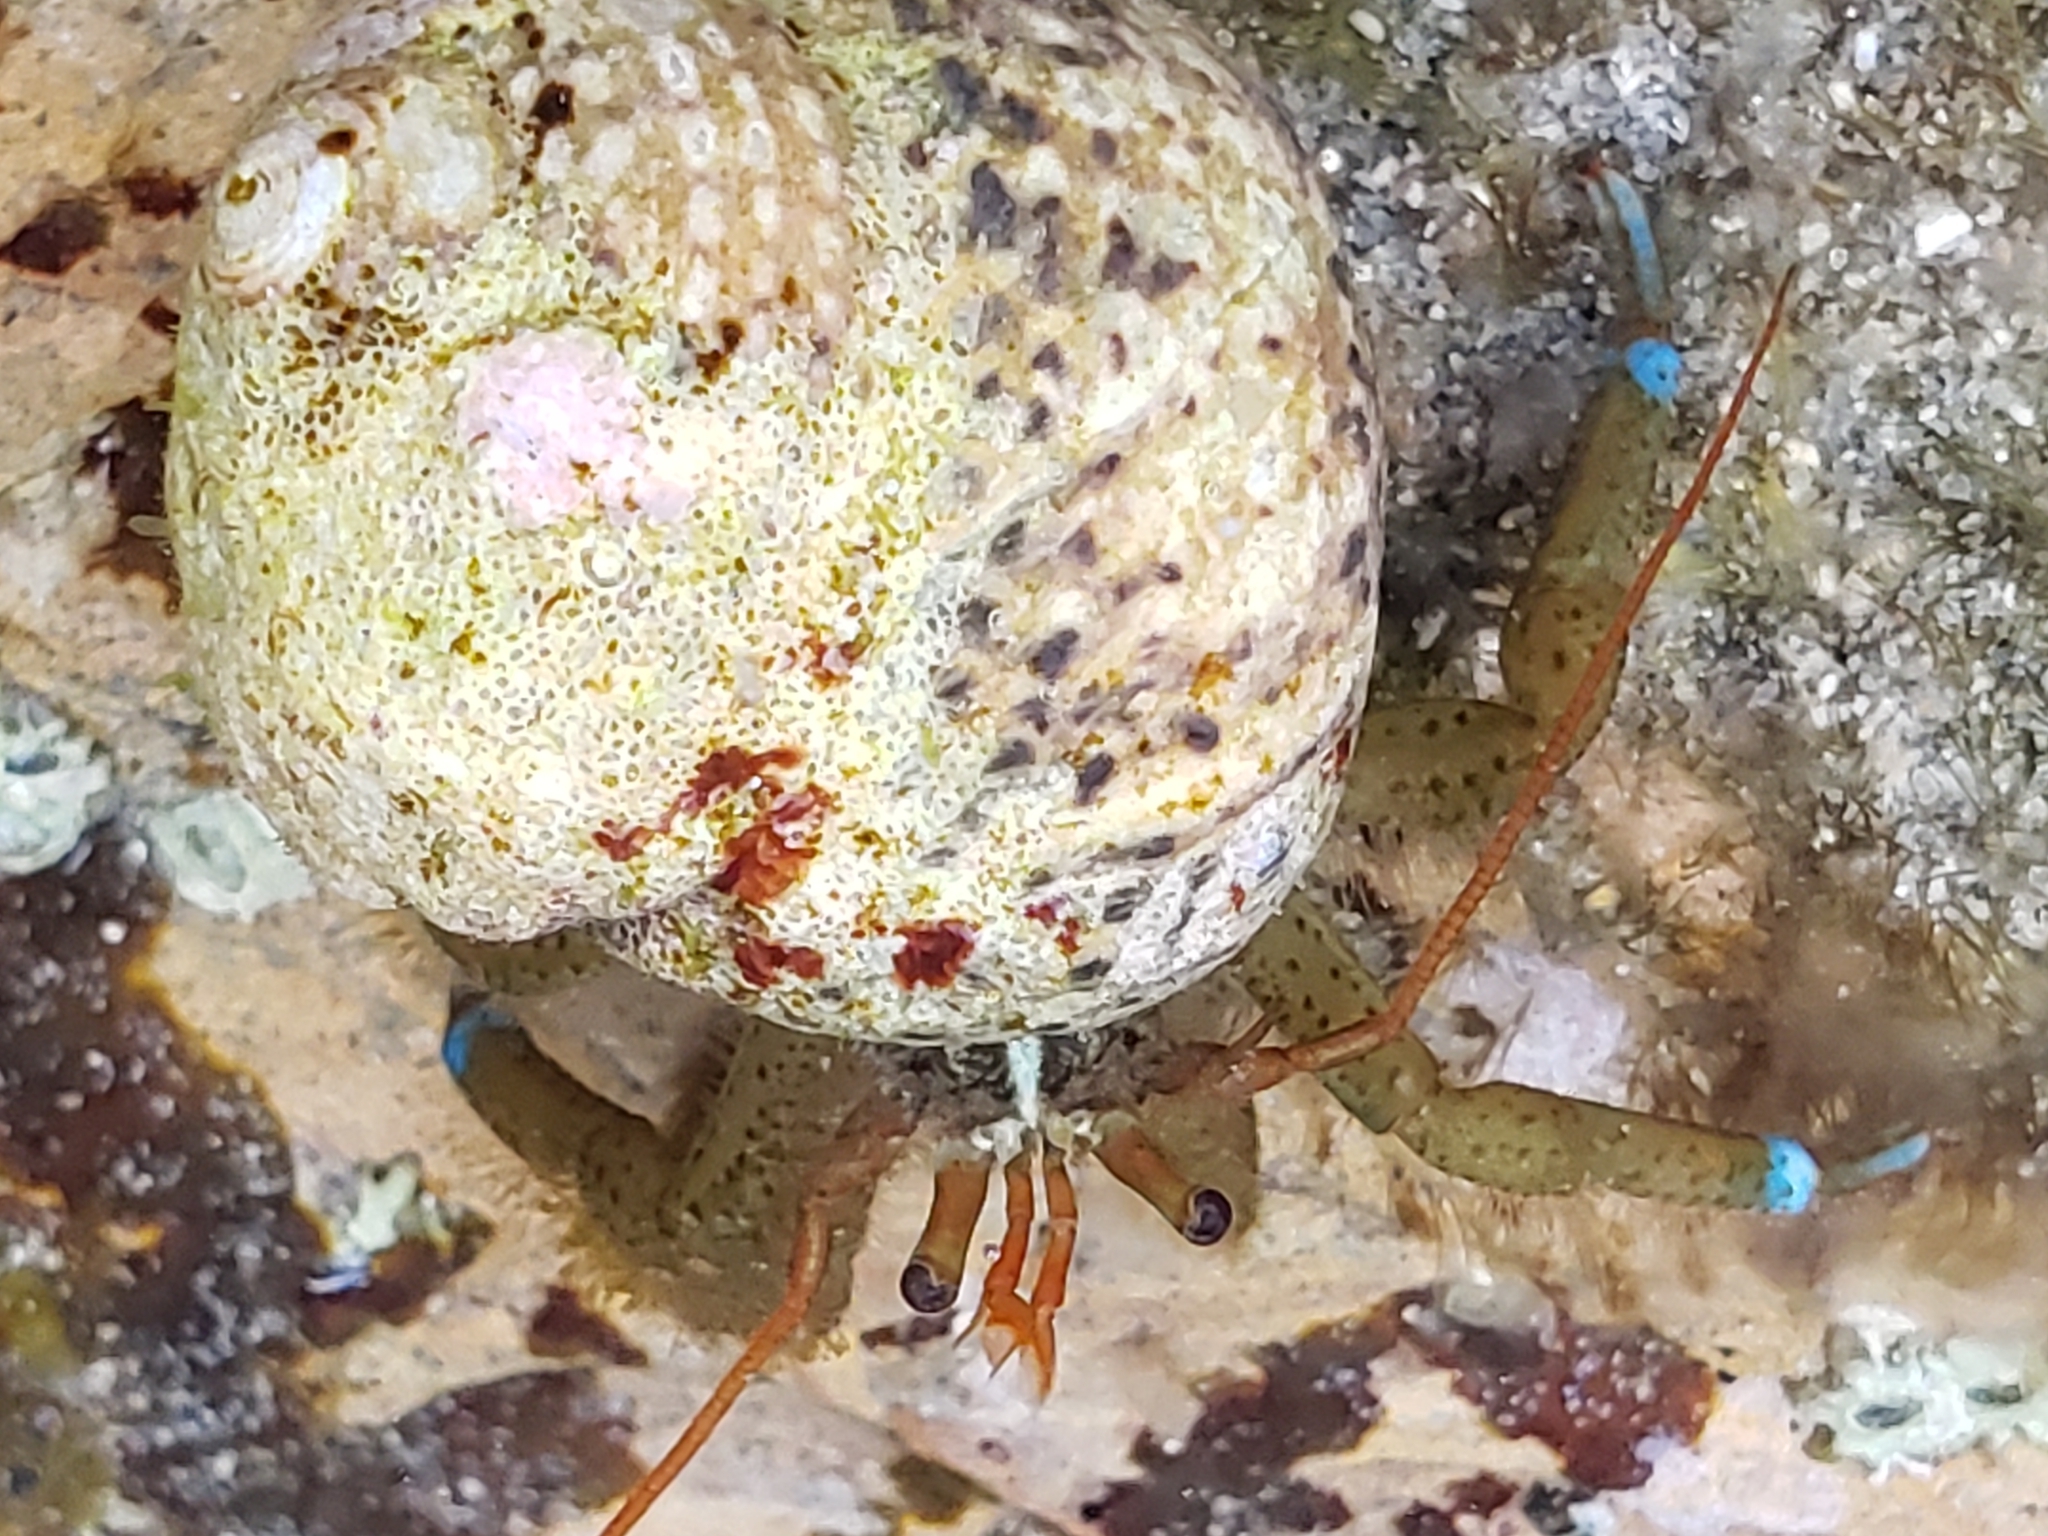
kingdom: Animalia
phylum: Arthropoda
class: Malacostraca
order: Decapoda
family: Paguridae
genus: Pagurus
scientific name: Pagurus samuelis
